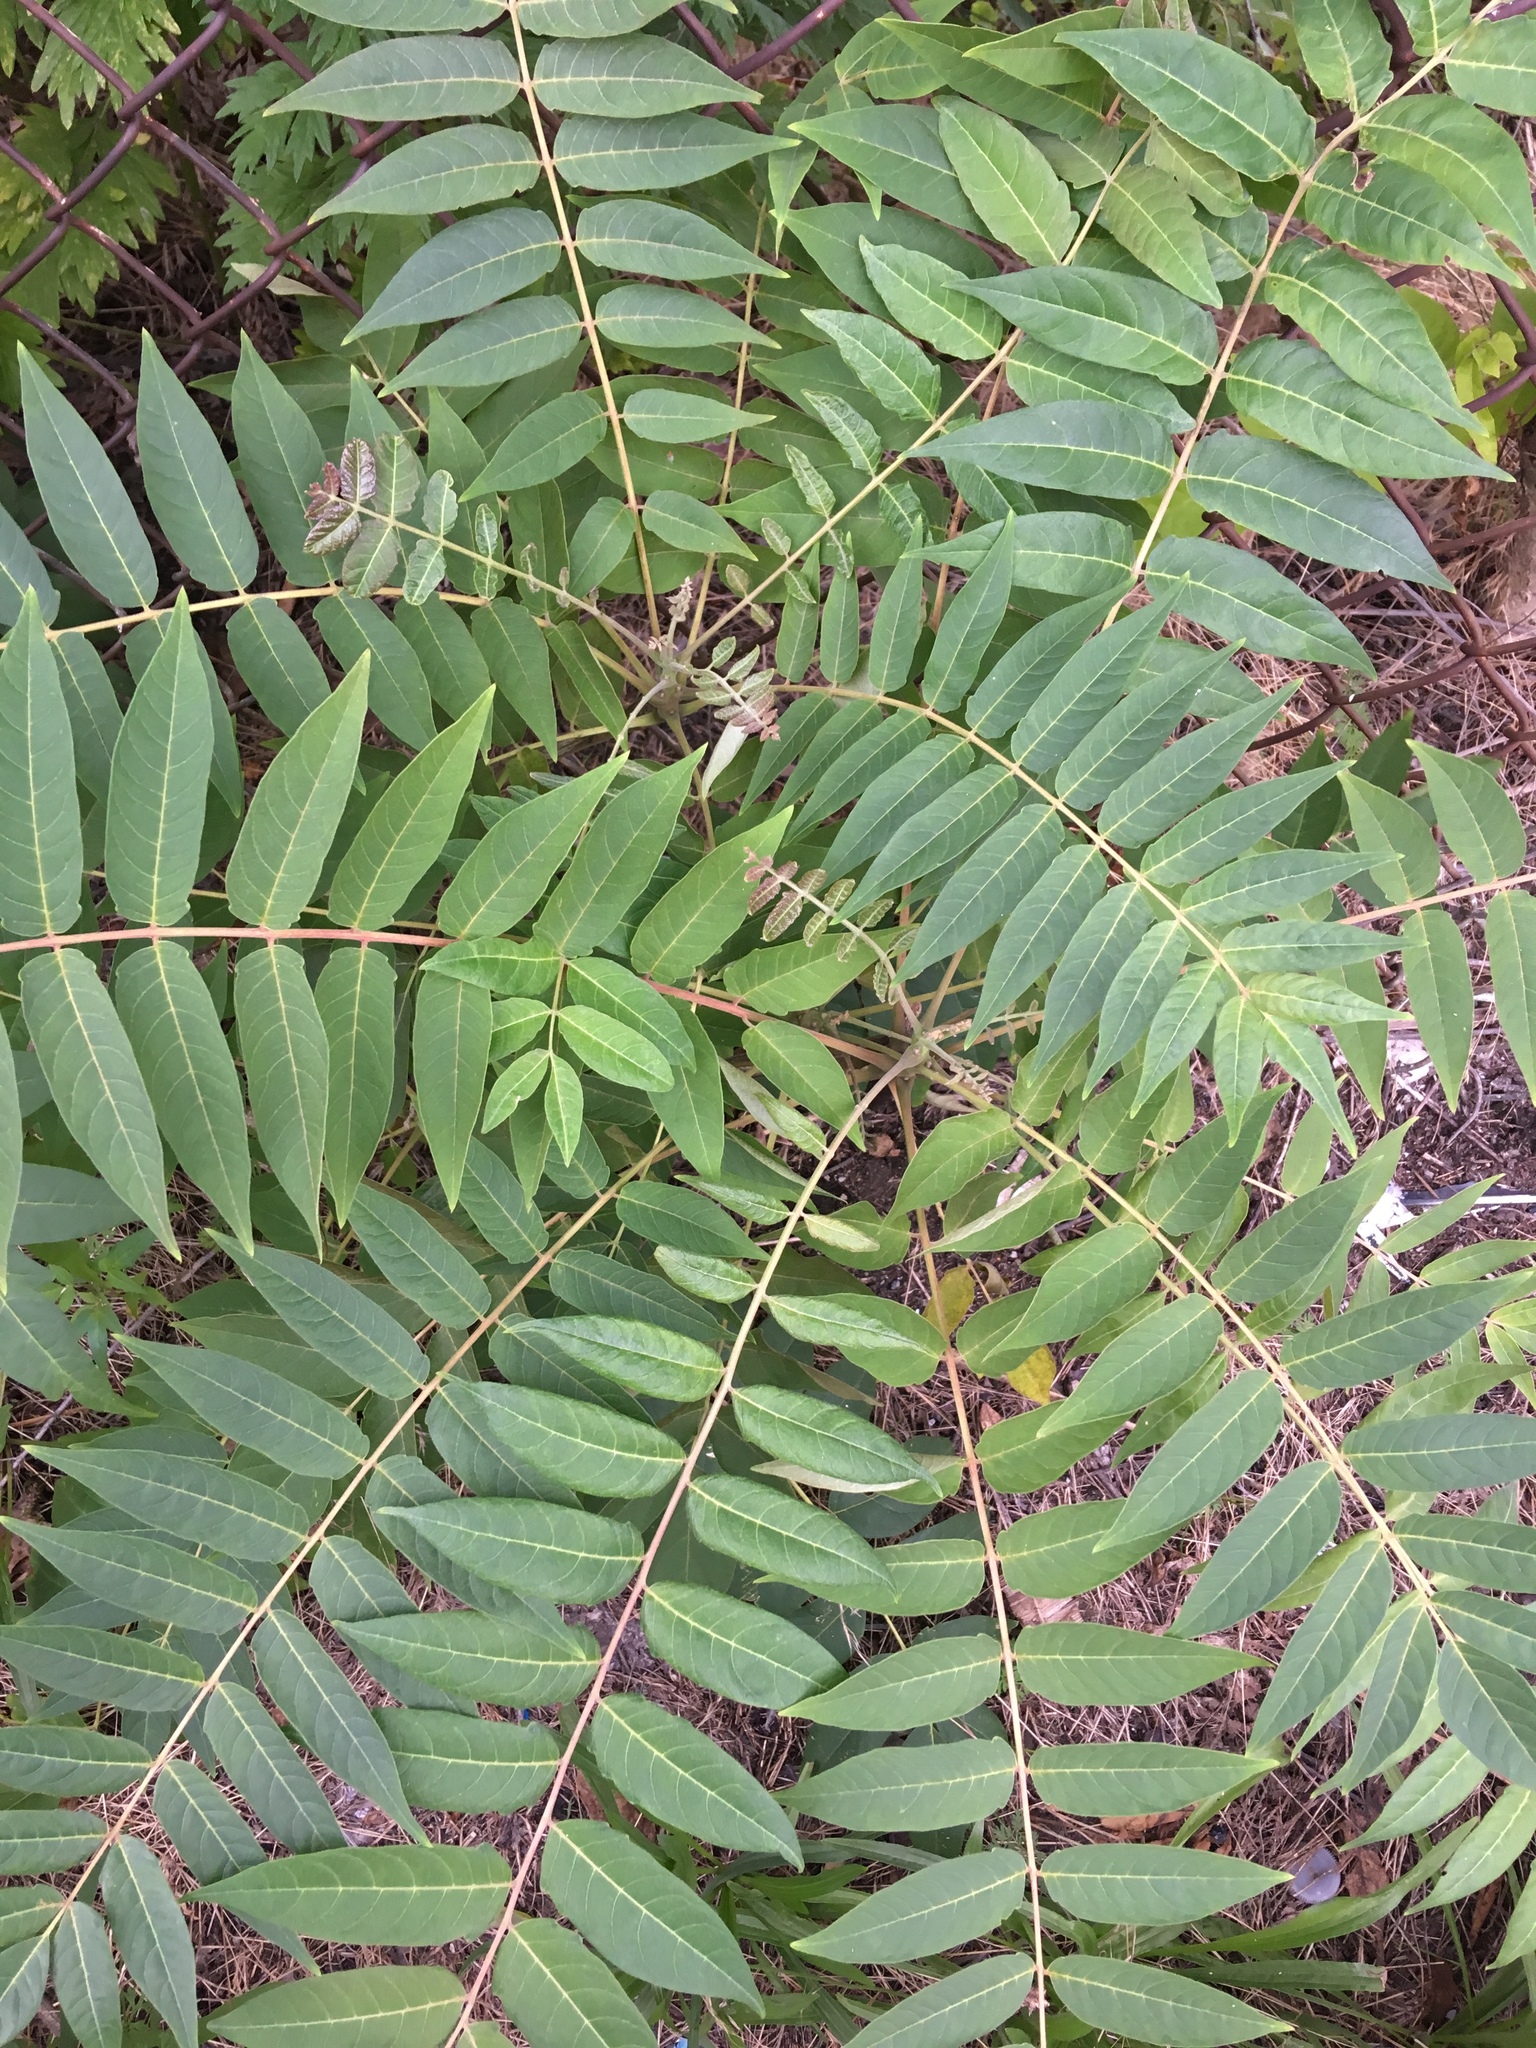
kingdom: Plantae
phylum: Tracheophyta
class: Magnoliopsida
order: Sapindales
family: Simaroubaceae
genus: Ailanthus
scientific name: Ailanthus altissima
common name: Tree-of-heaven
